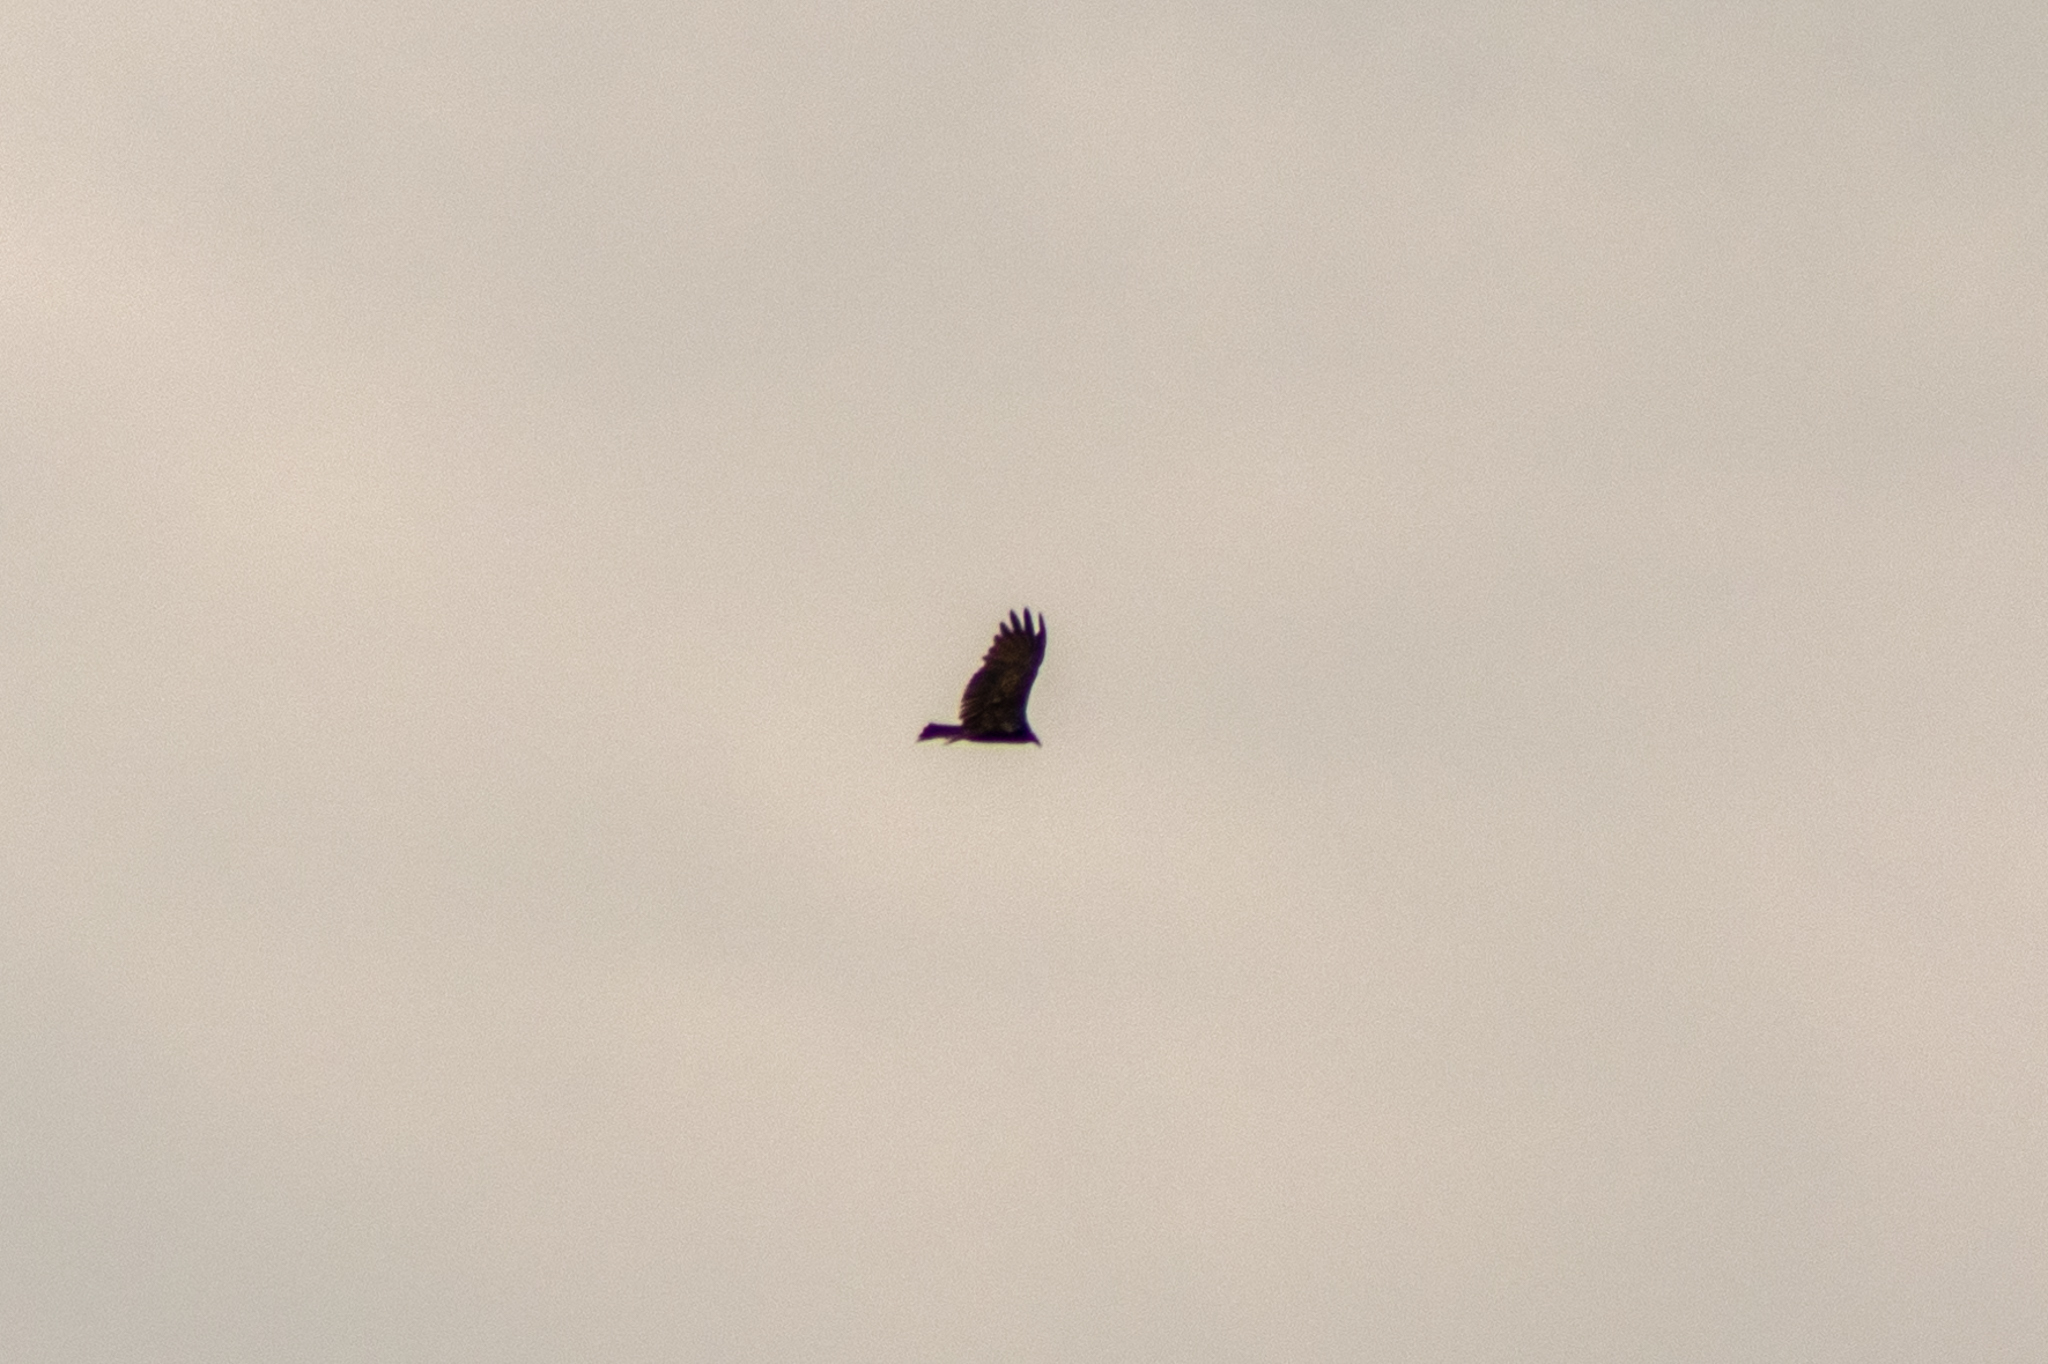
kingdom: Animalia
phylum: Chordata
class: Aves
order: Accipitriformes
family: Cathartidae
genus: Cathartes
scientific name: Cathartes aura
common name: Turkey vulture
